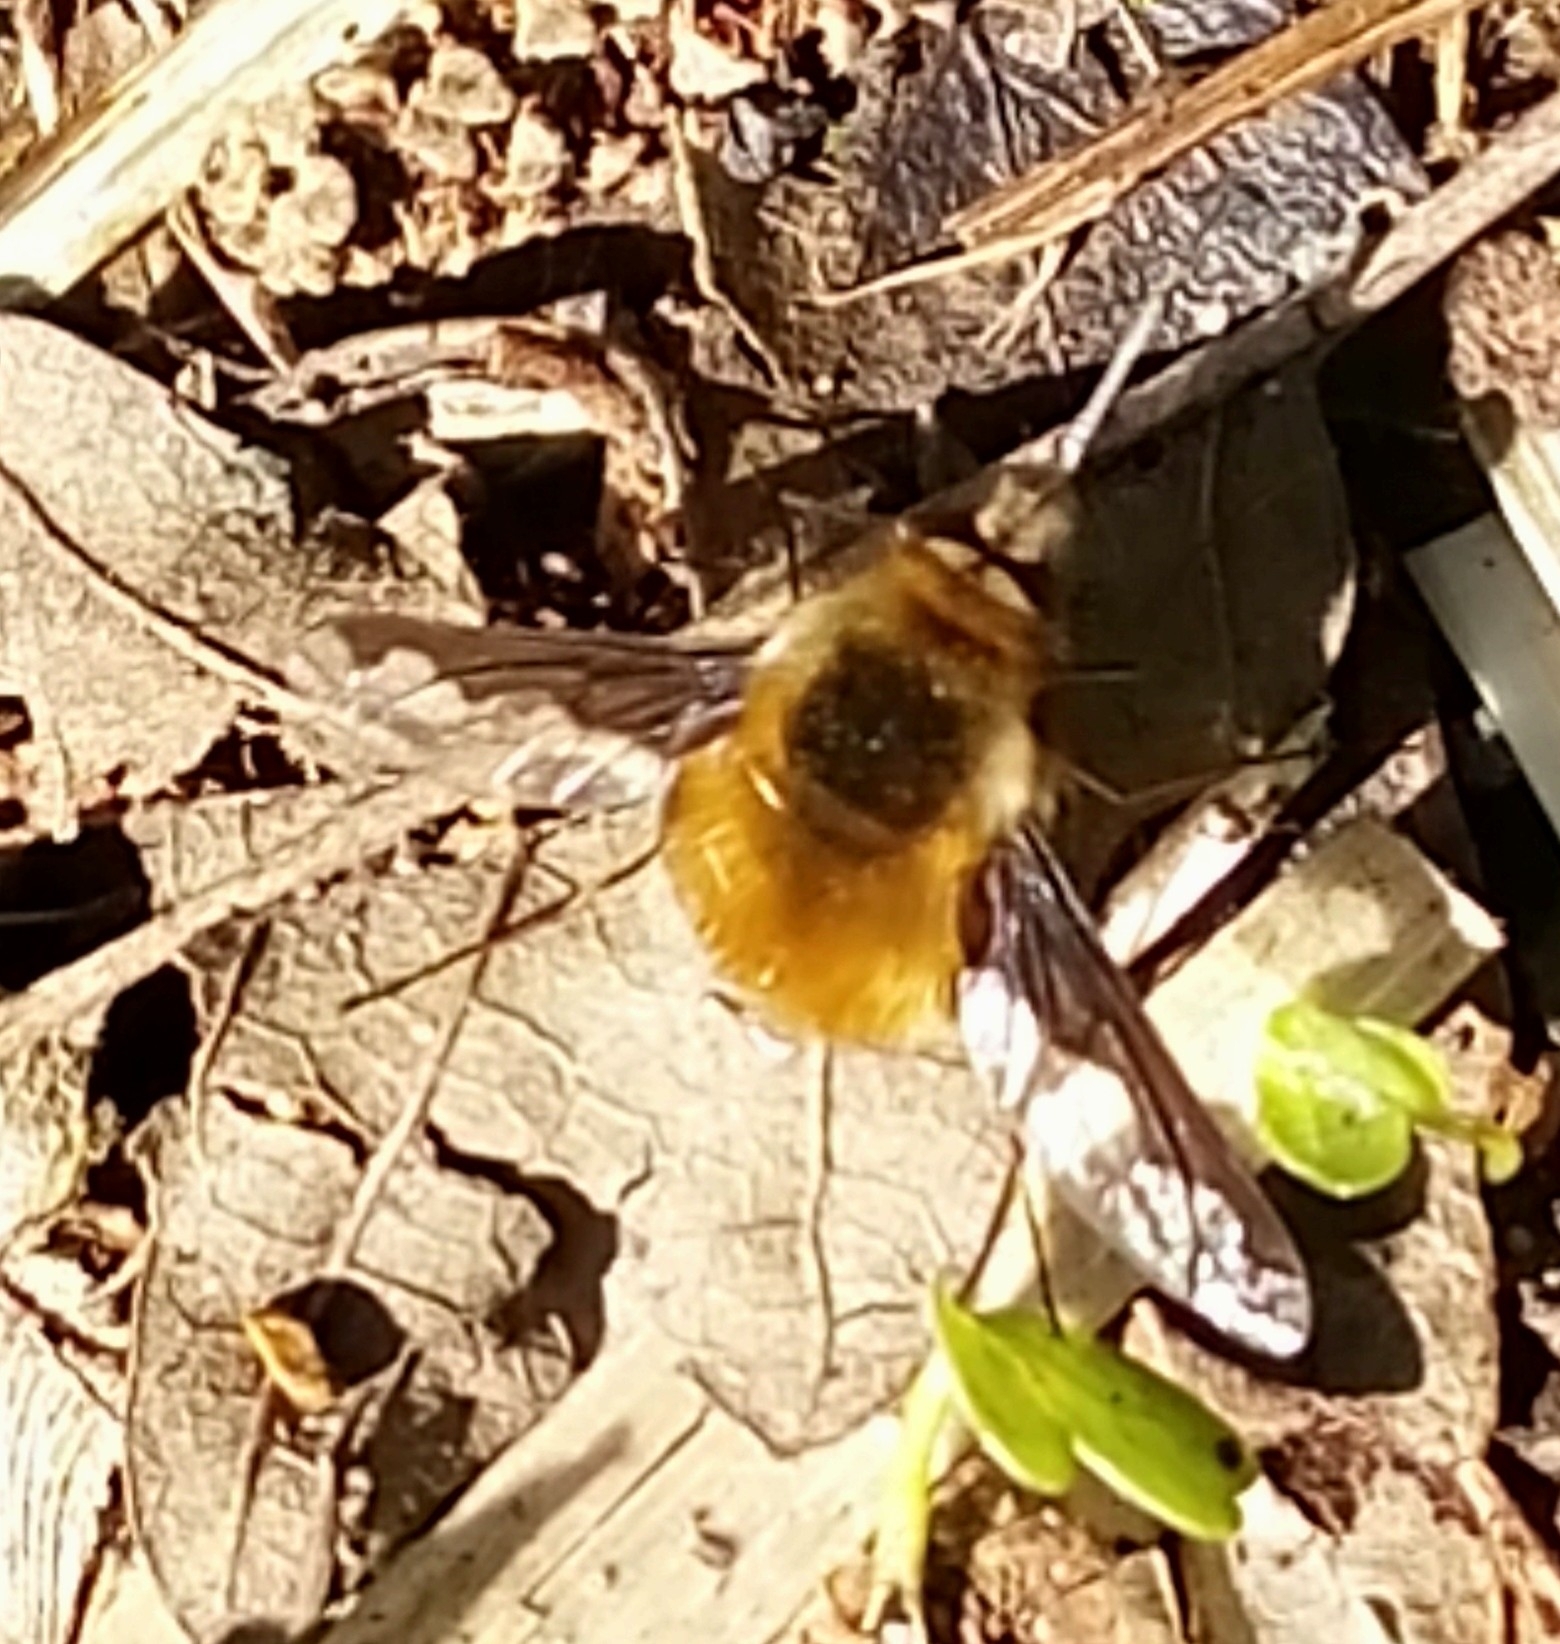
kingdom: Animalia
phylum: Arthropoda
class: Insecta
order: Diptera
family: Bombyliidae
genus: Bombylius
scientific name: Bombylius major
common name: Bee fly
